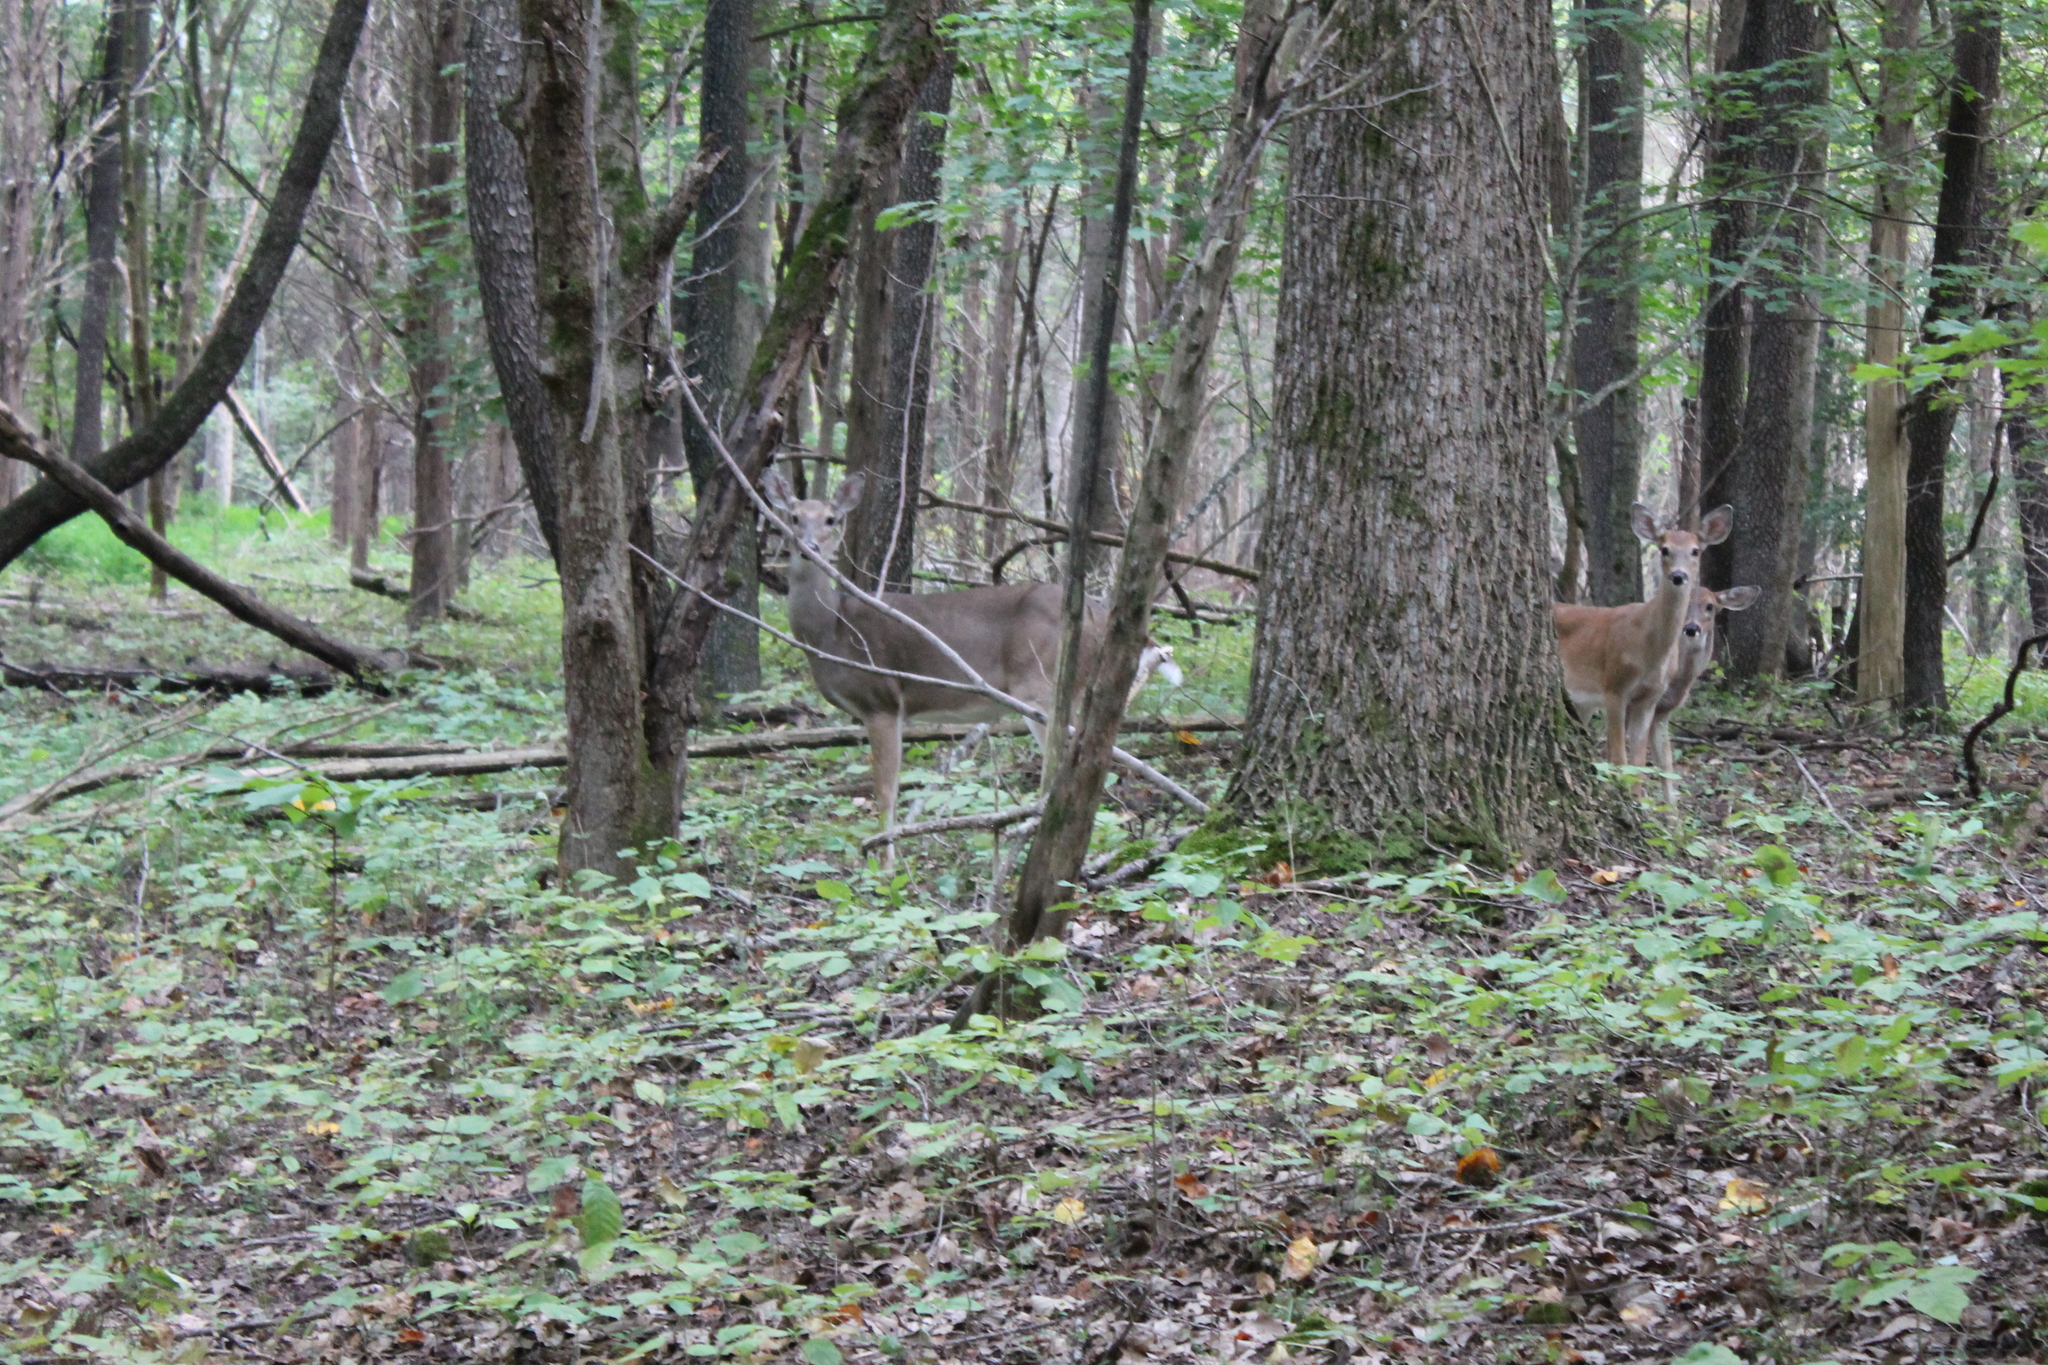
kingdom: Animalia
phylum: Chordata
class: Mammalia
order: Artiodactyla
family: Cervidae
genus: Odocoileus
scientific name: Odocoileus virginianus
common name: White-tailed deer
